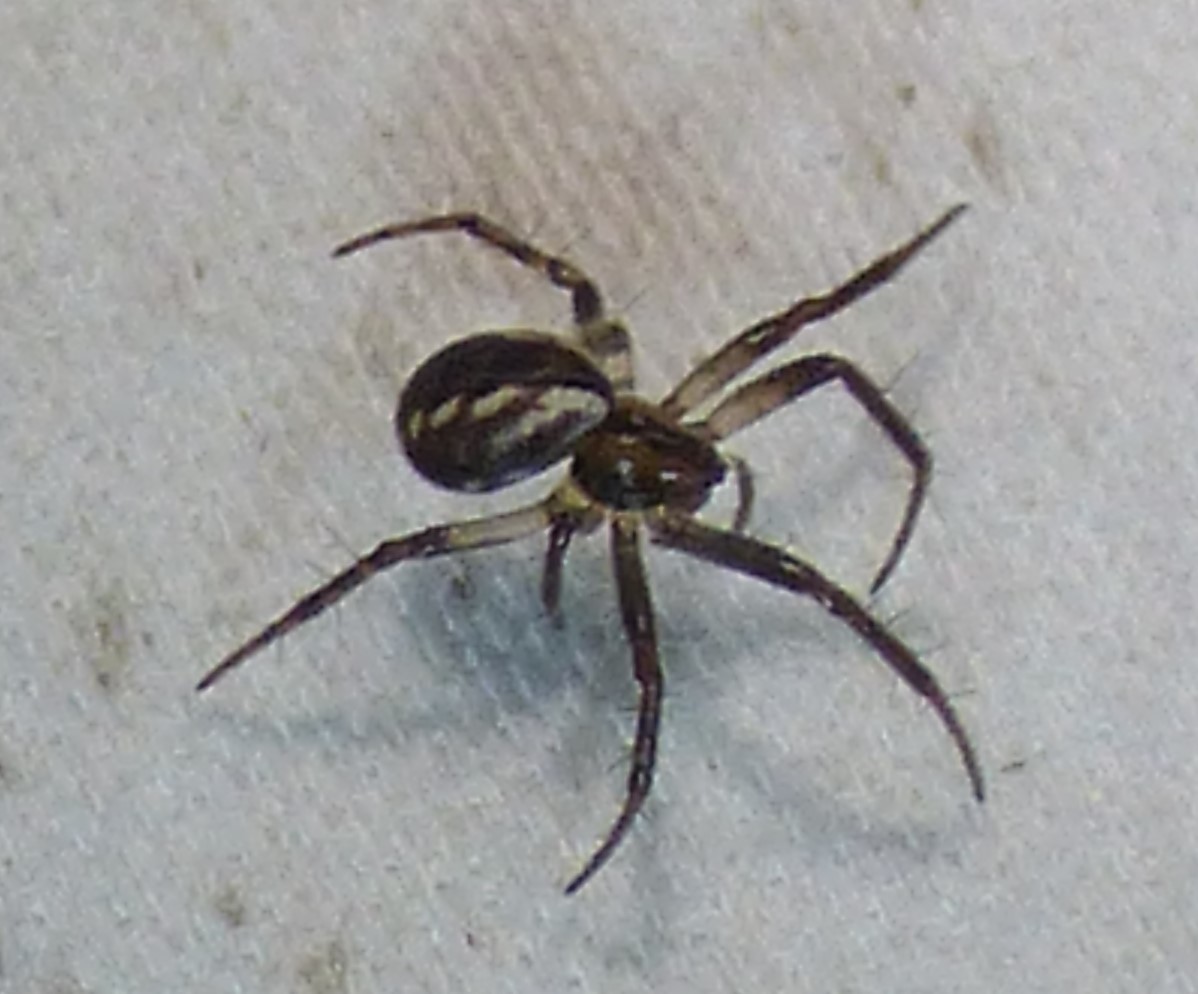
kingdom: Animalia
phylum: Arthropoda
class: Arachnida
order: Araneae
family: Araneidae
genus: Mangora
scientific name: Mangora placida
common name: Tuft-legged orbweaver
